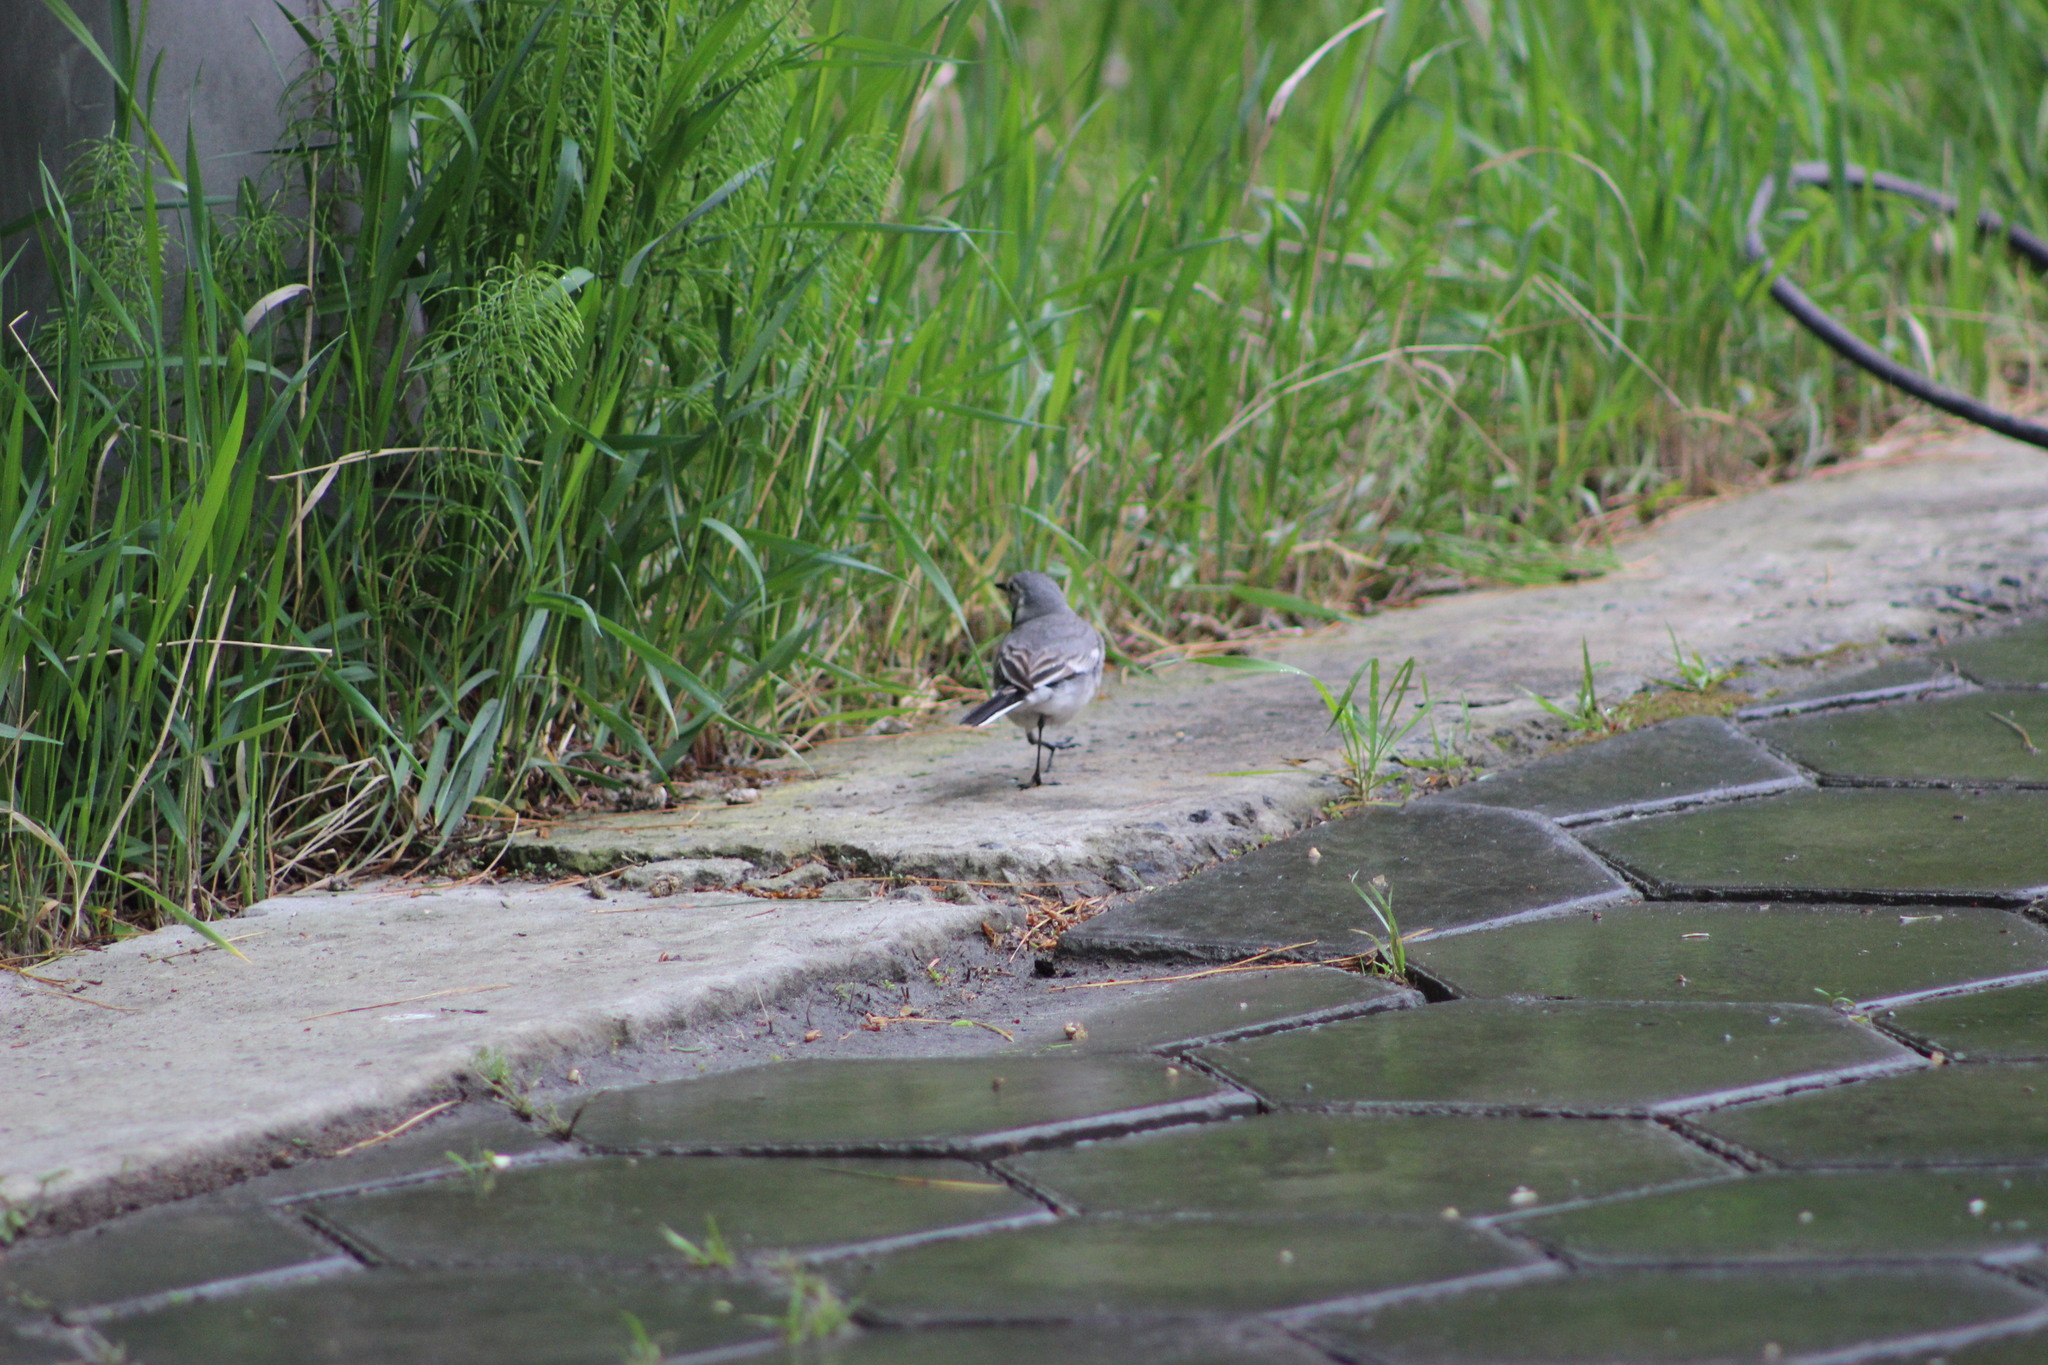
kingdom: Animalia
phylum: Chordata
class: Aves
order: Passeriformes
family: Motacillidae
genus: Motacilla
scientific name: Motacilla alba
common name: White wagtail
